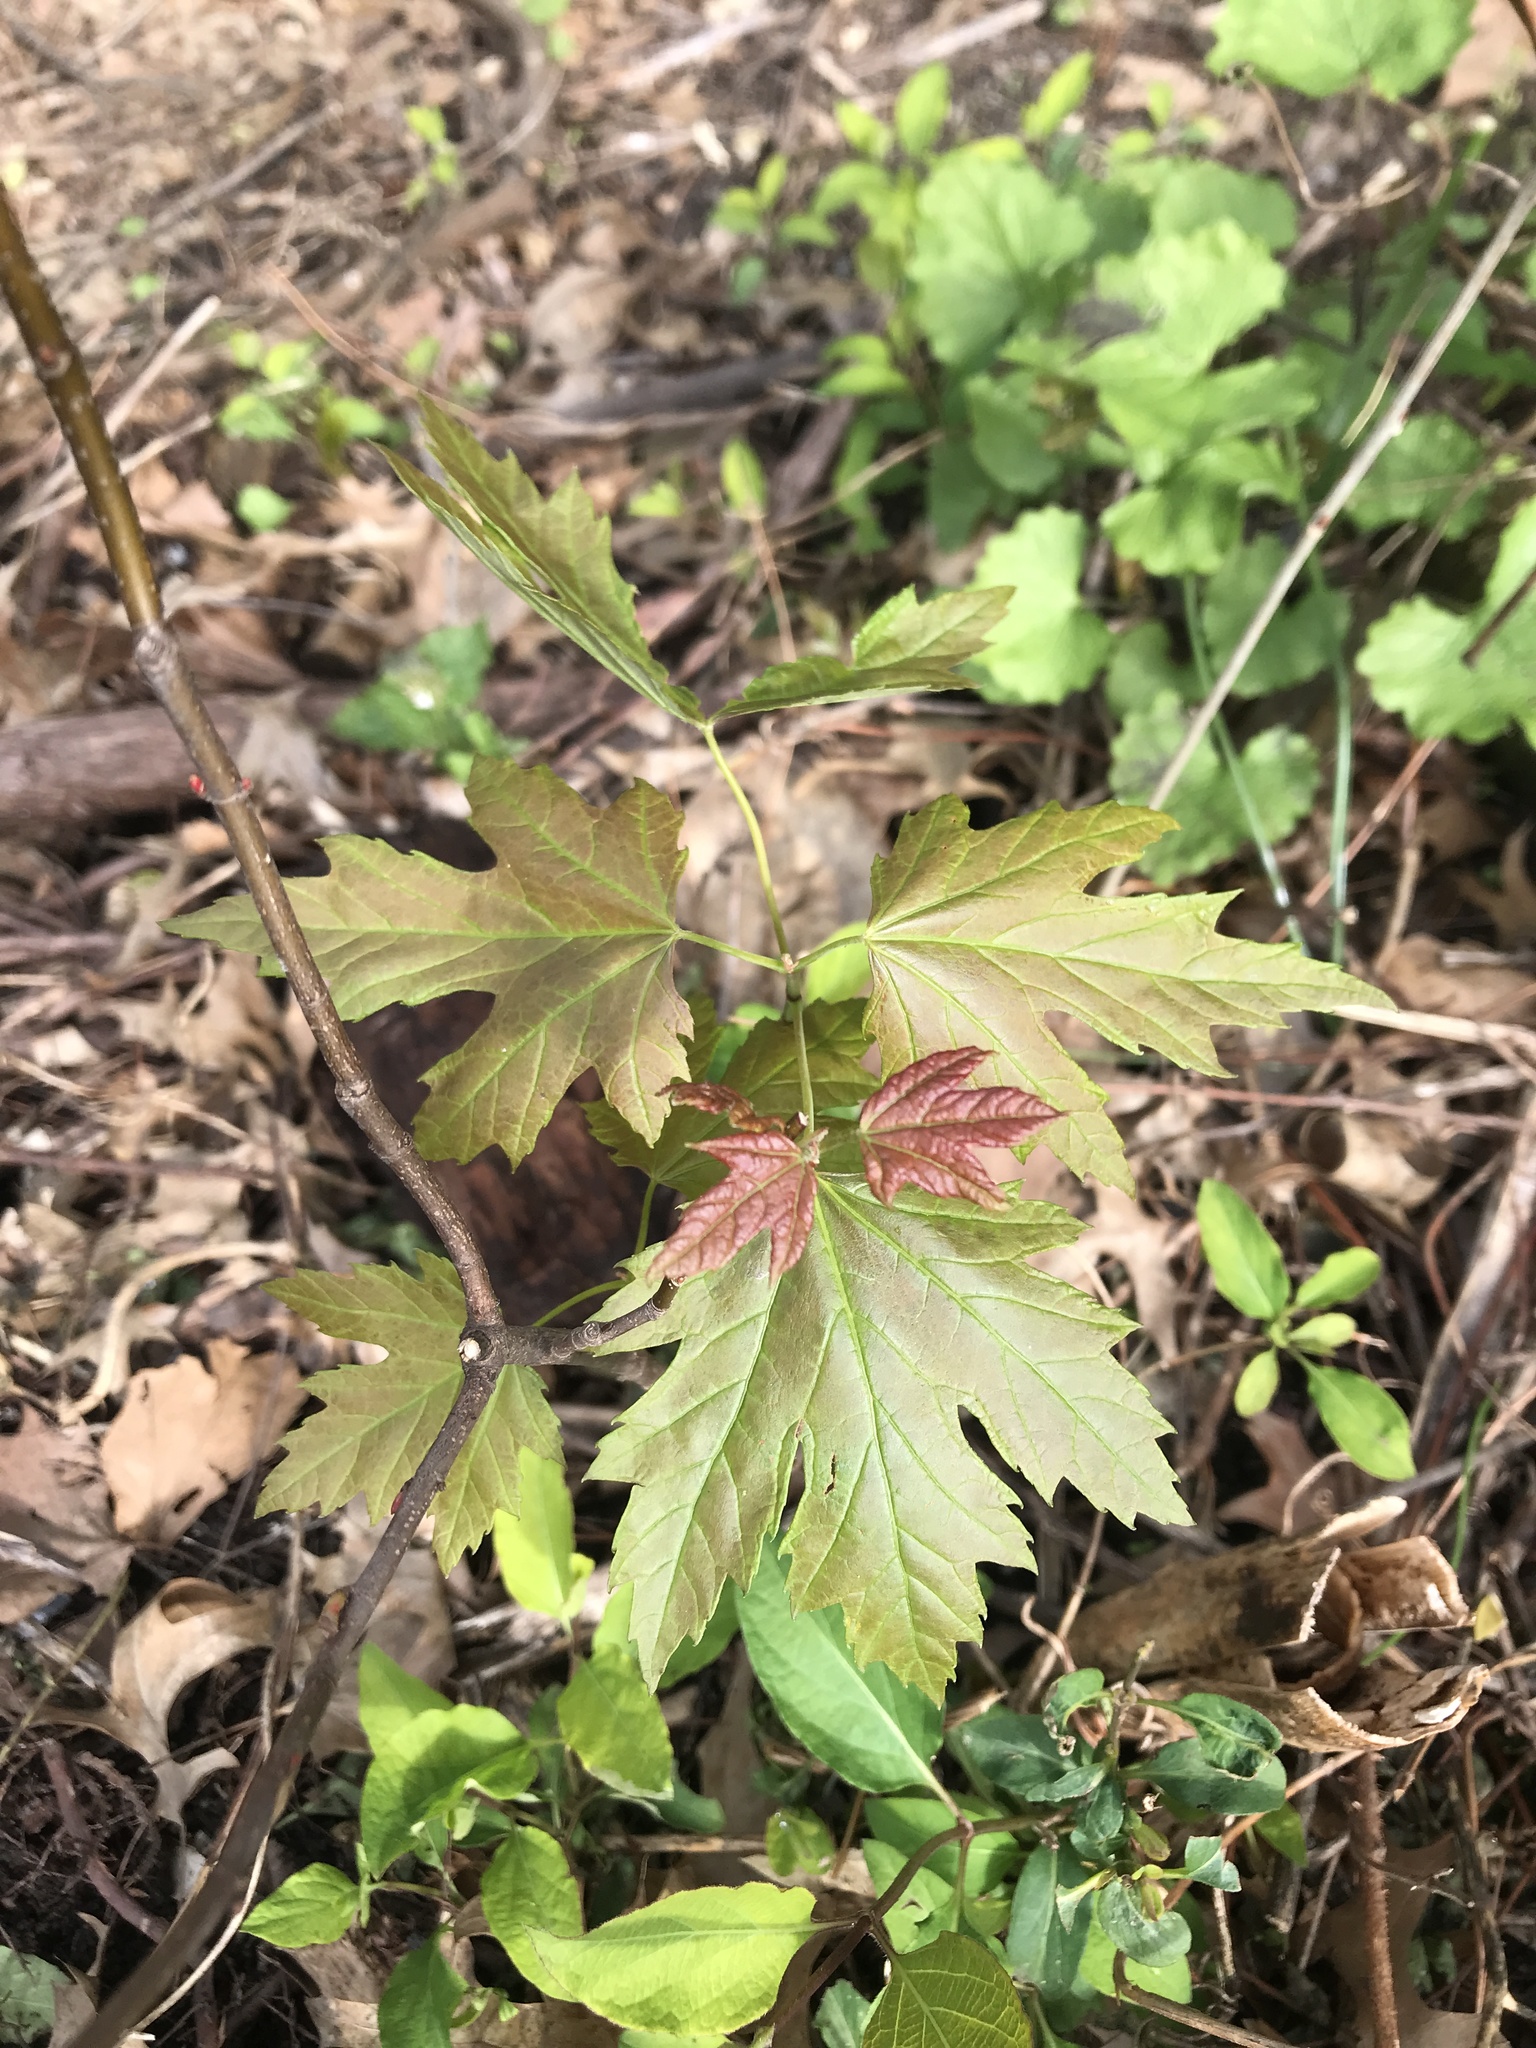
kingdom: Plantae
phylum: Tracheophyta
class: Magnoliopsida
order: Sapindales
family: Sapindaceae
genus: Acer
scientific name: Acer saccharinum
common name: Silver maple
